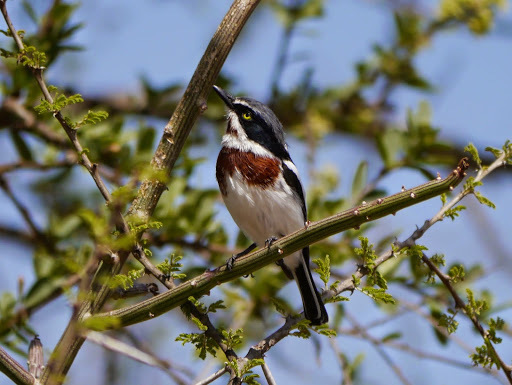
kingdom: Animalia
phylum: Chordata
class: Aves
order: Passeriformes
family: Platysteiridae
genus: Batis
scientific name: Batis molitor
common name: Chinspot batis
